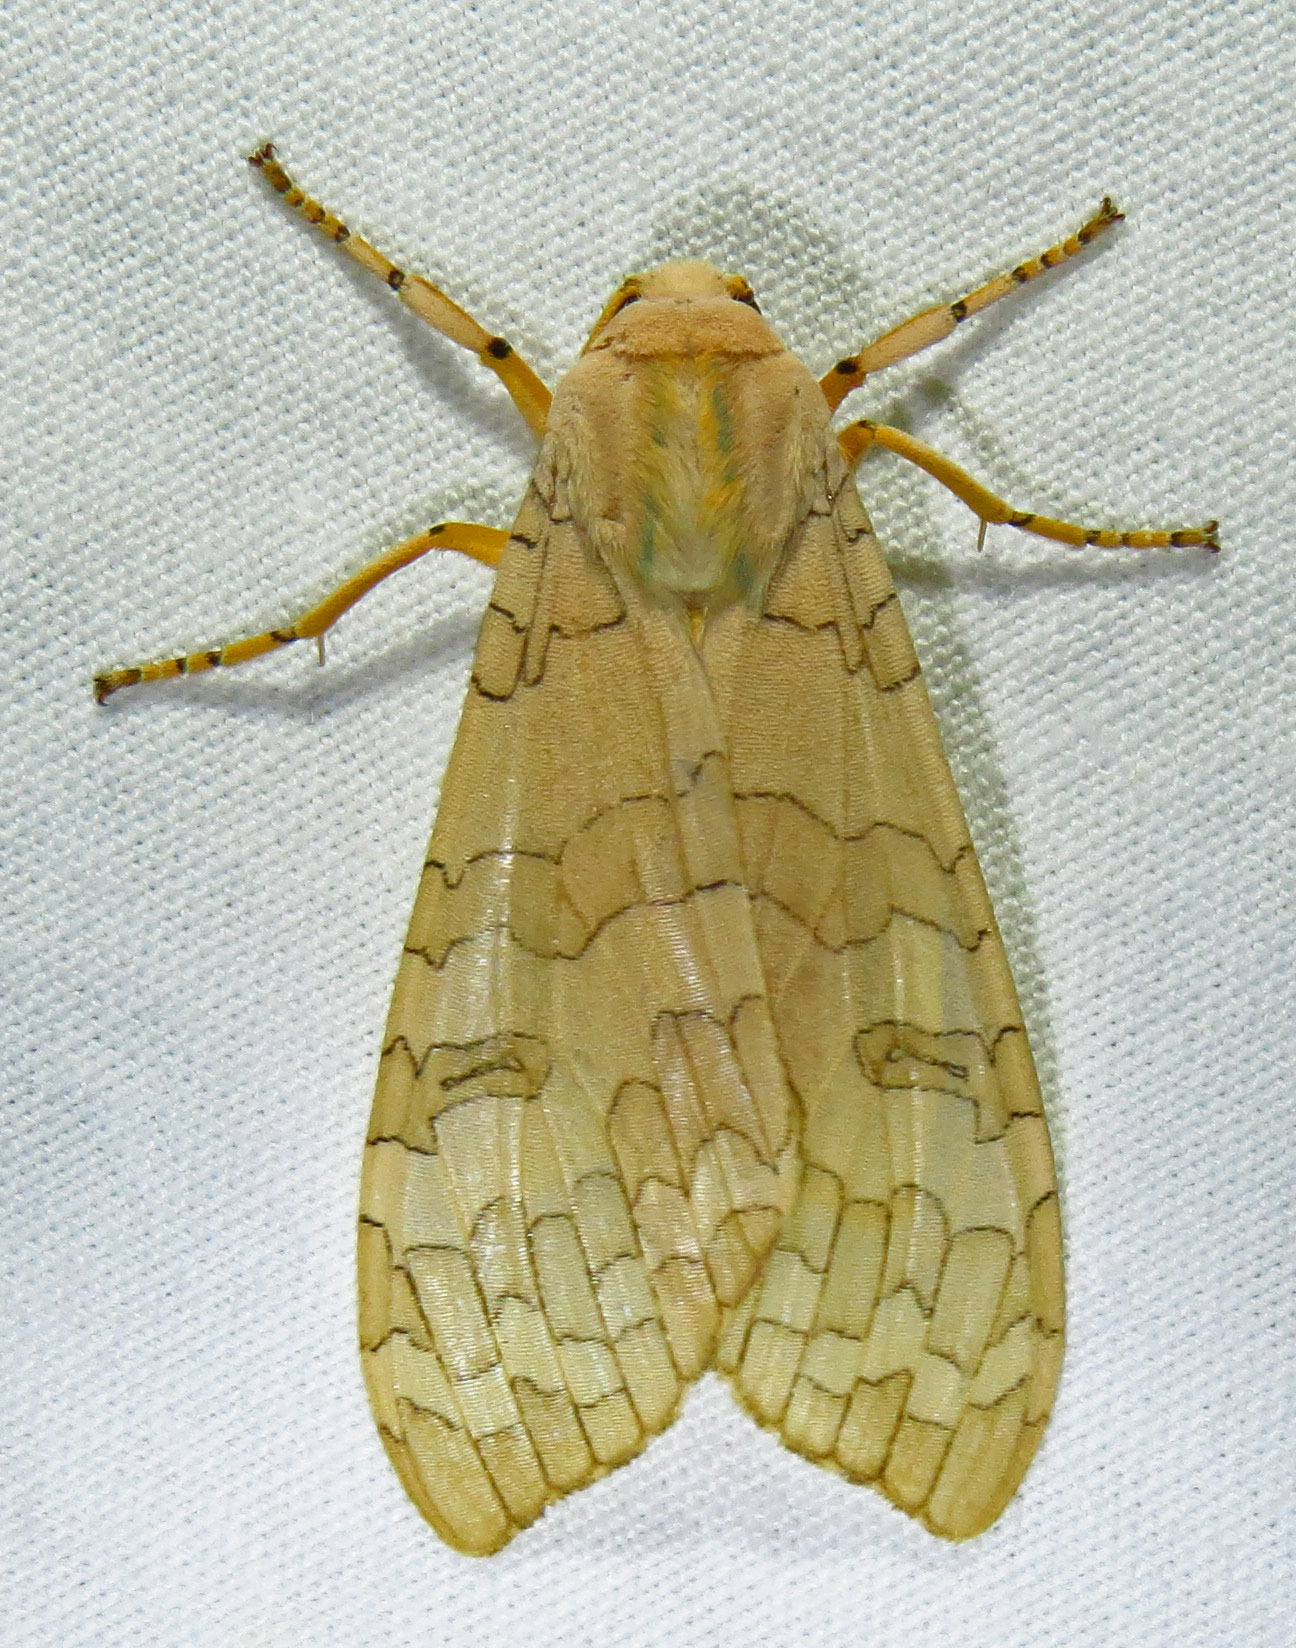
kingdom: Animalia
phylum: Arthropoda
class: Insecta
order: Lepidoptera
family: Erebidae
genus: Halysidota
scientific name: Halysidota
